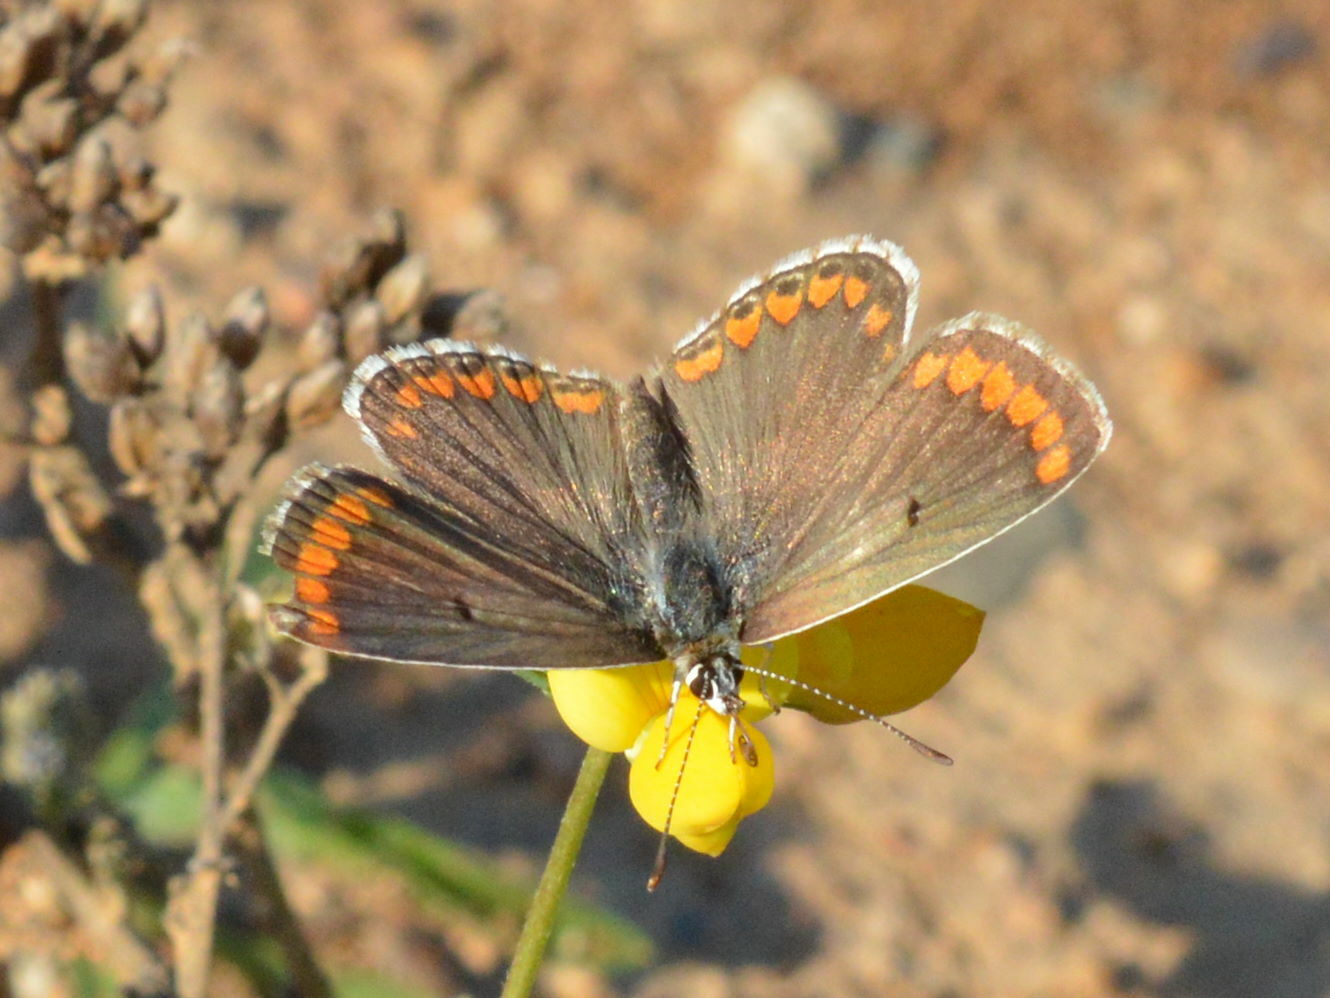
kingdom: Animalia
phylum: Arthropoda
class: Insecta
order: Lepidoptera
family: Lycaenidae
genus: Aricia
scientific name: Aricia agestis
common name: Brown argus
